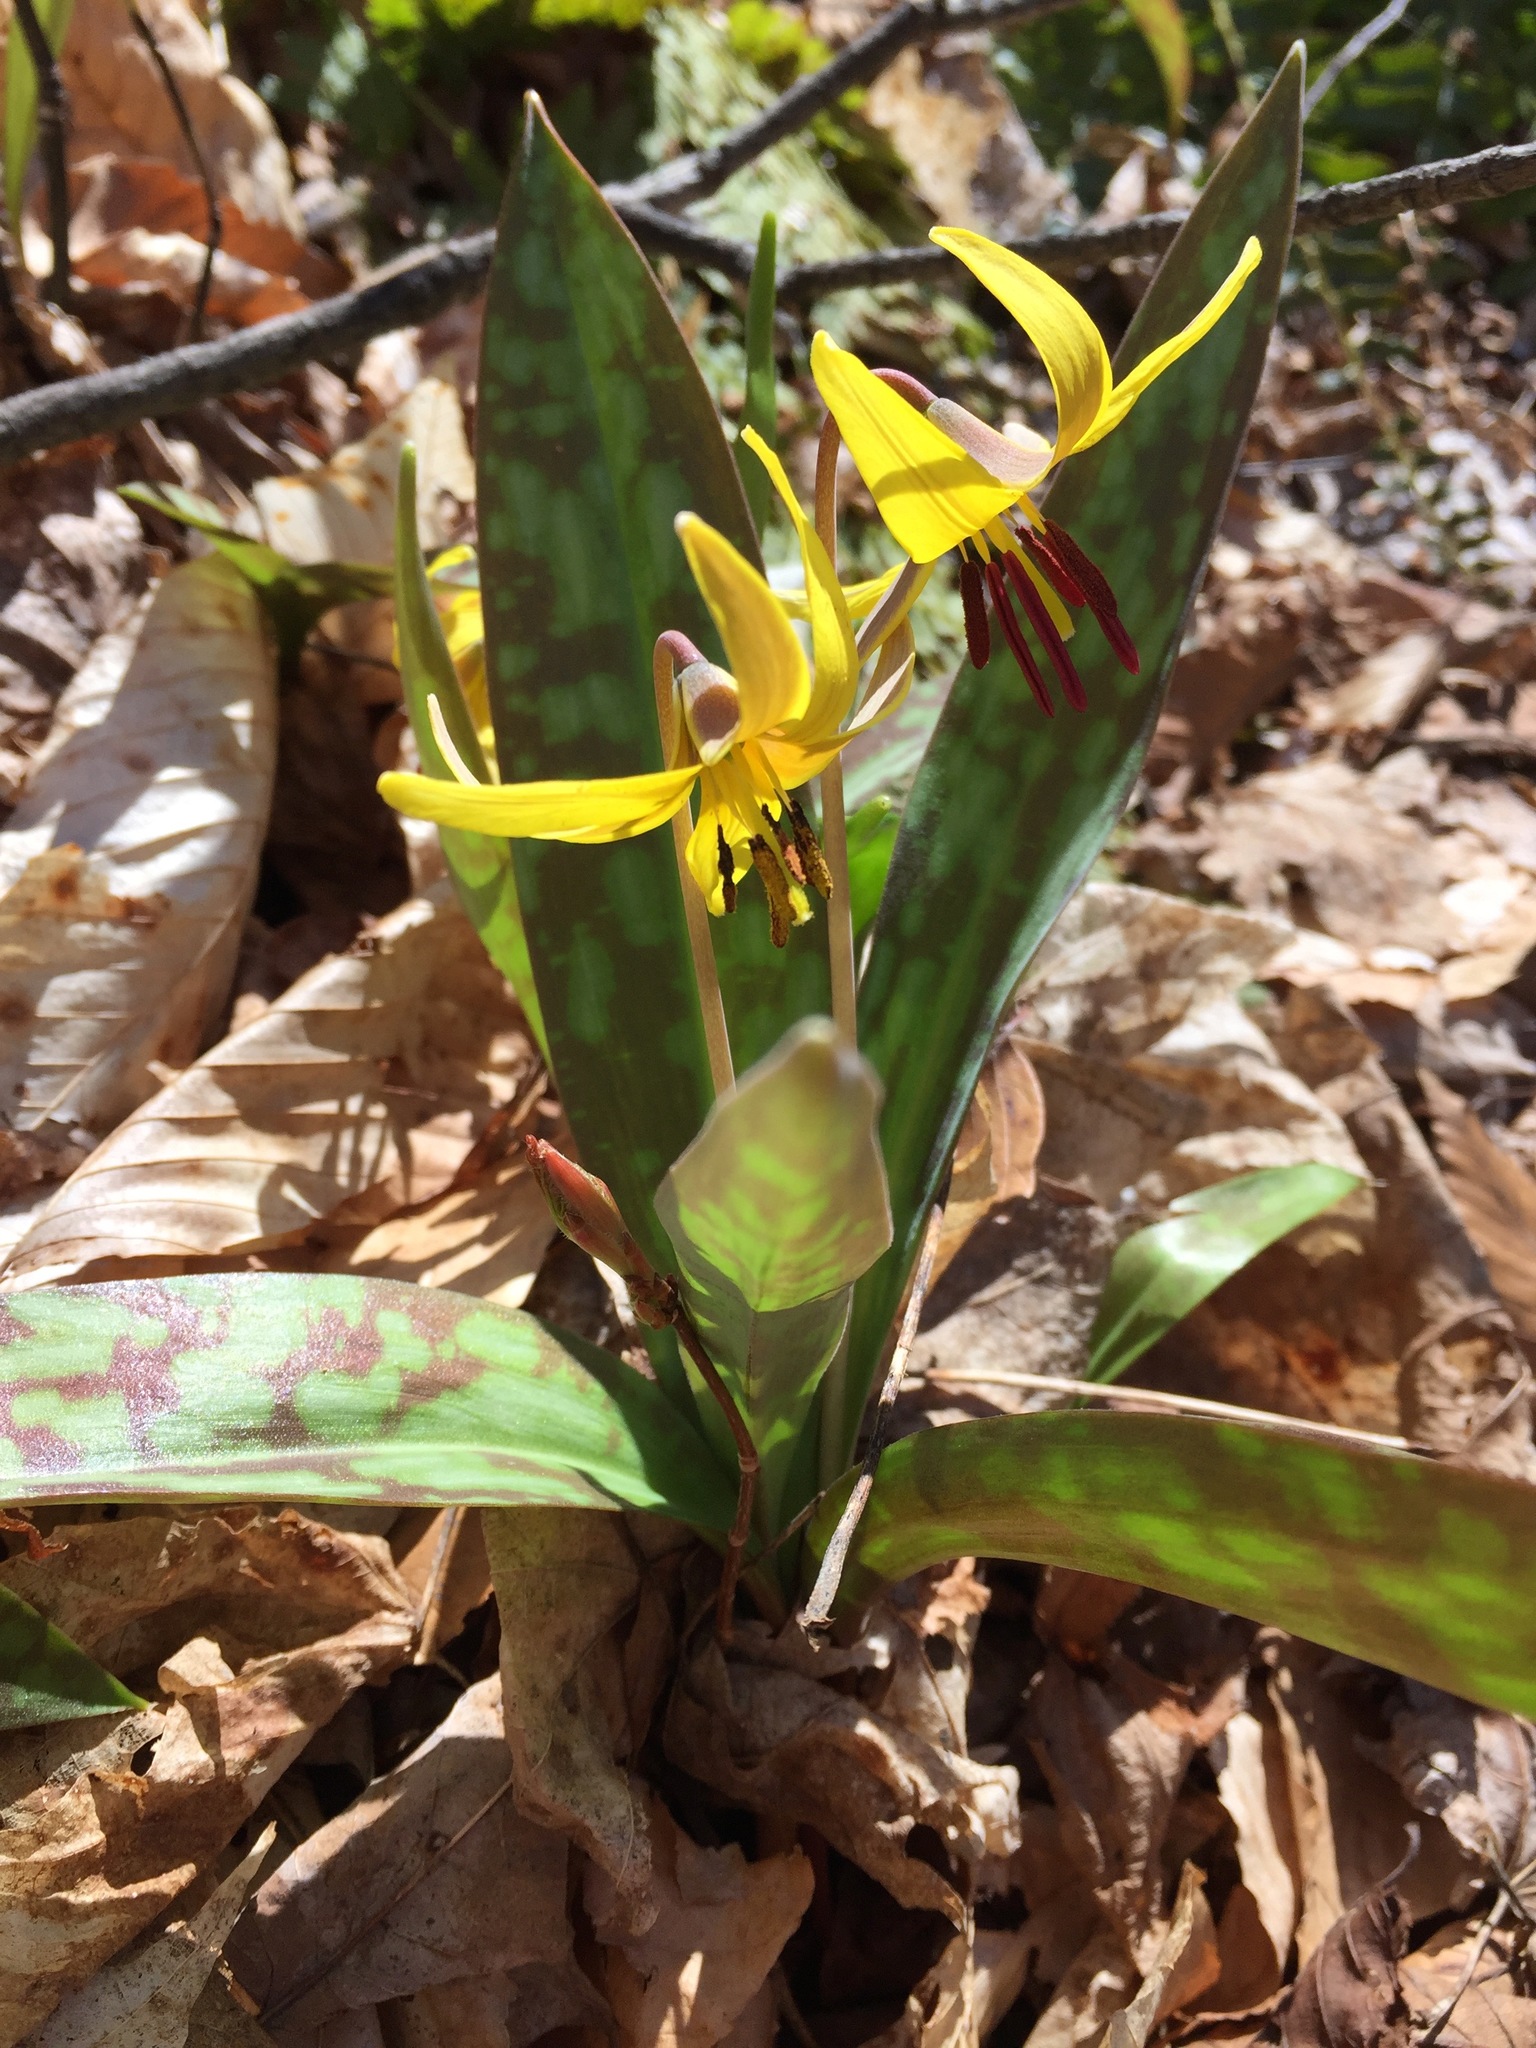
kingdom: Plantae
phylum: Tracheophyta
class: Liliopsida
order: Liliales
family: Liliaceae
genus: Erythronium
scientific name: Erythronium americanum
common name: Yellow adder's-tongue
